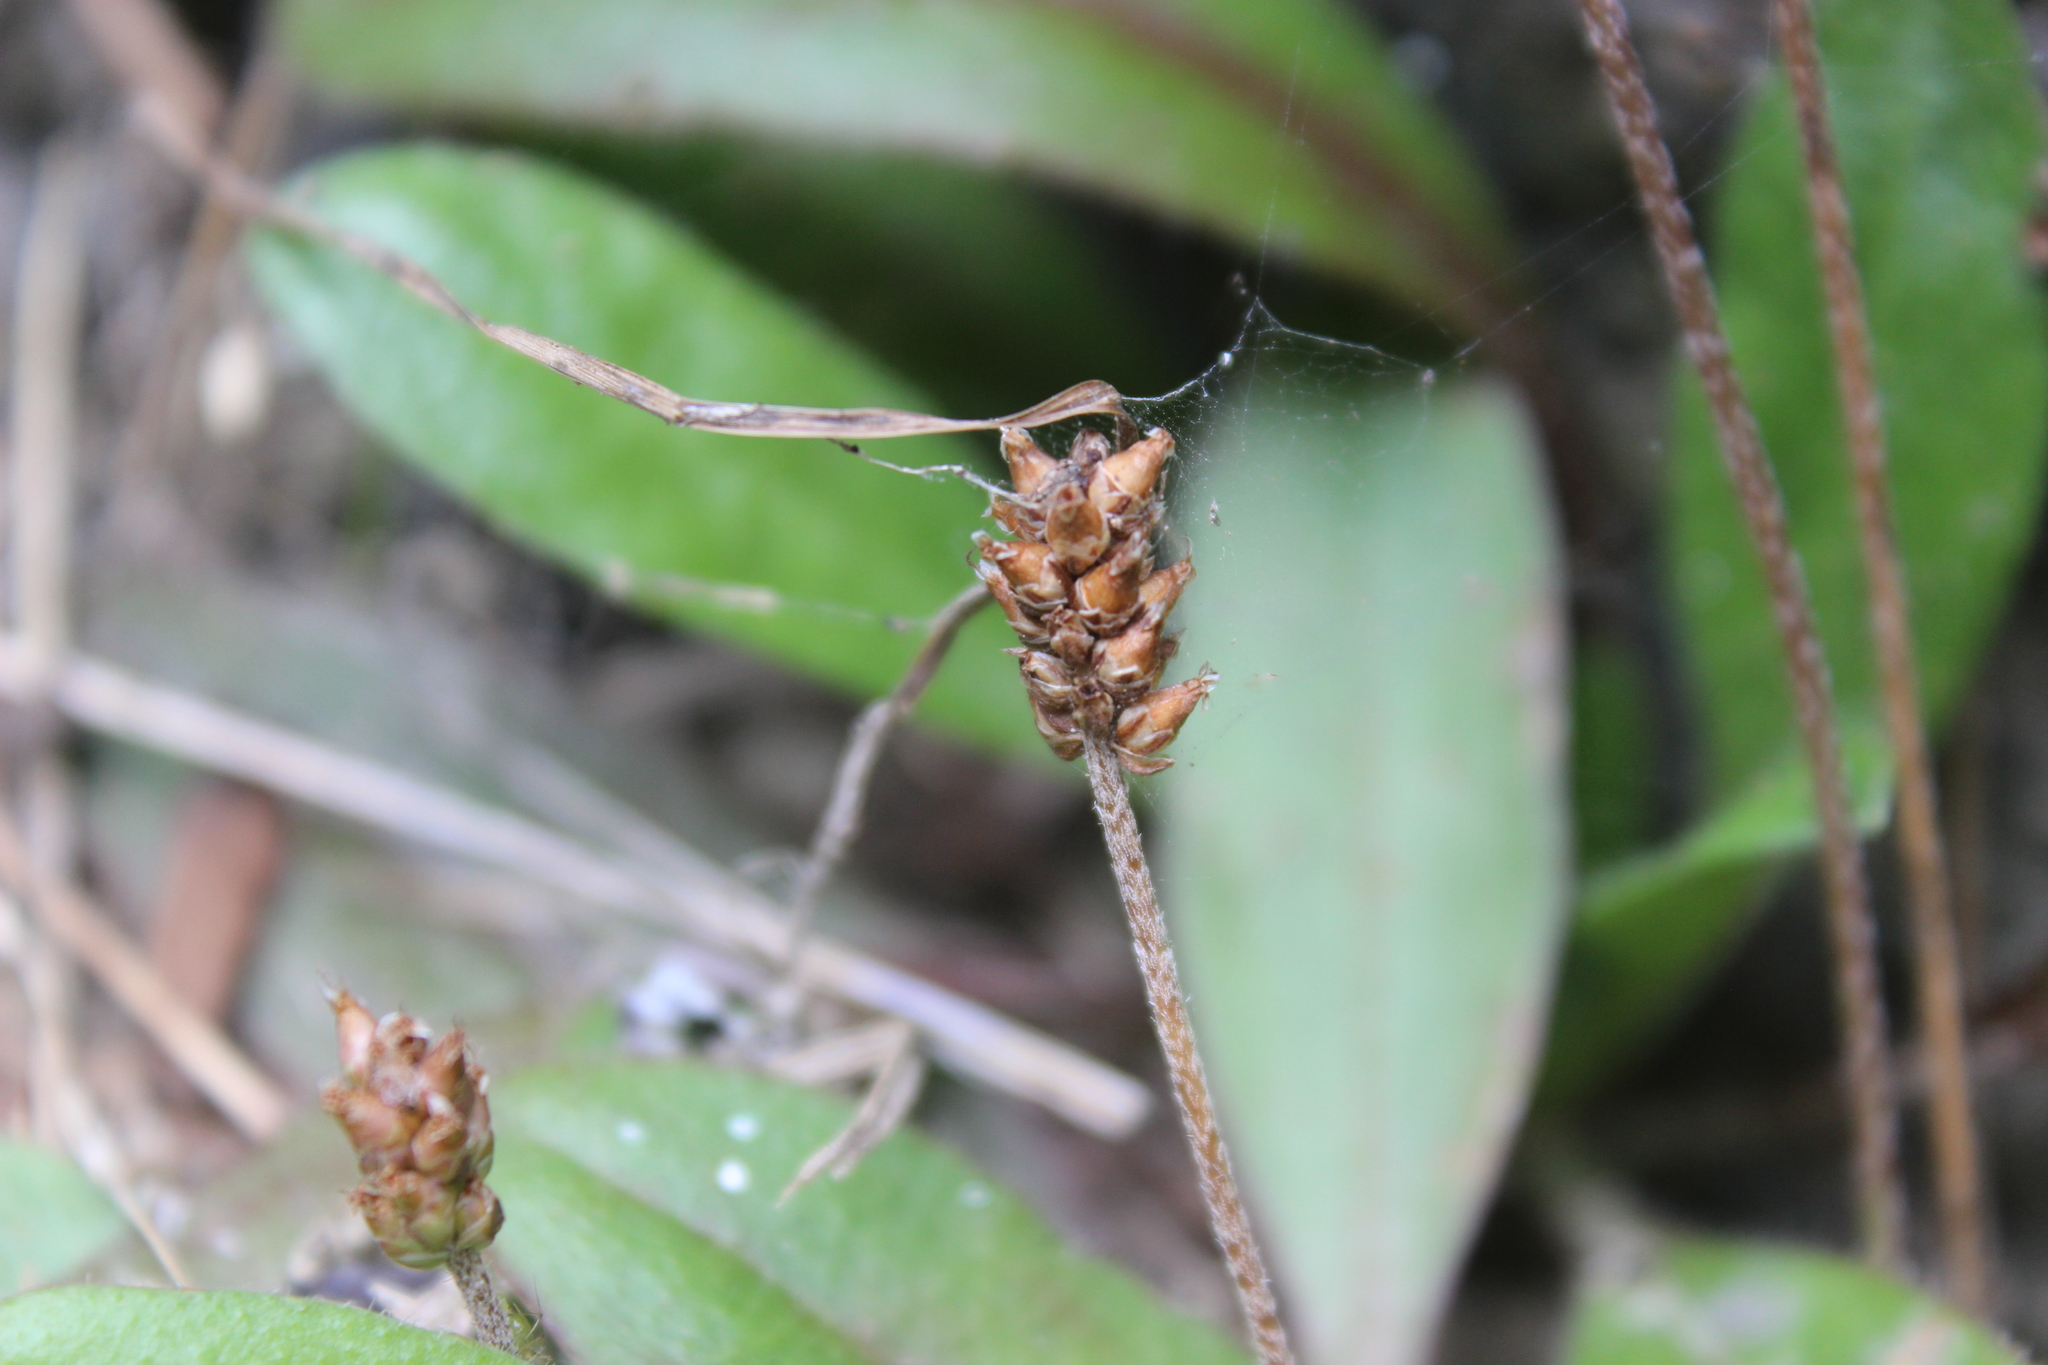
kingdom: Plantae
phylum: Tracheophyta
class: Magnoliopsida
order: Lamiales
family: Plantaginaceae
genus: Plantago
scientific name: Plantago raoulii
